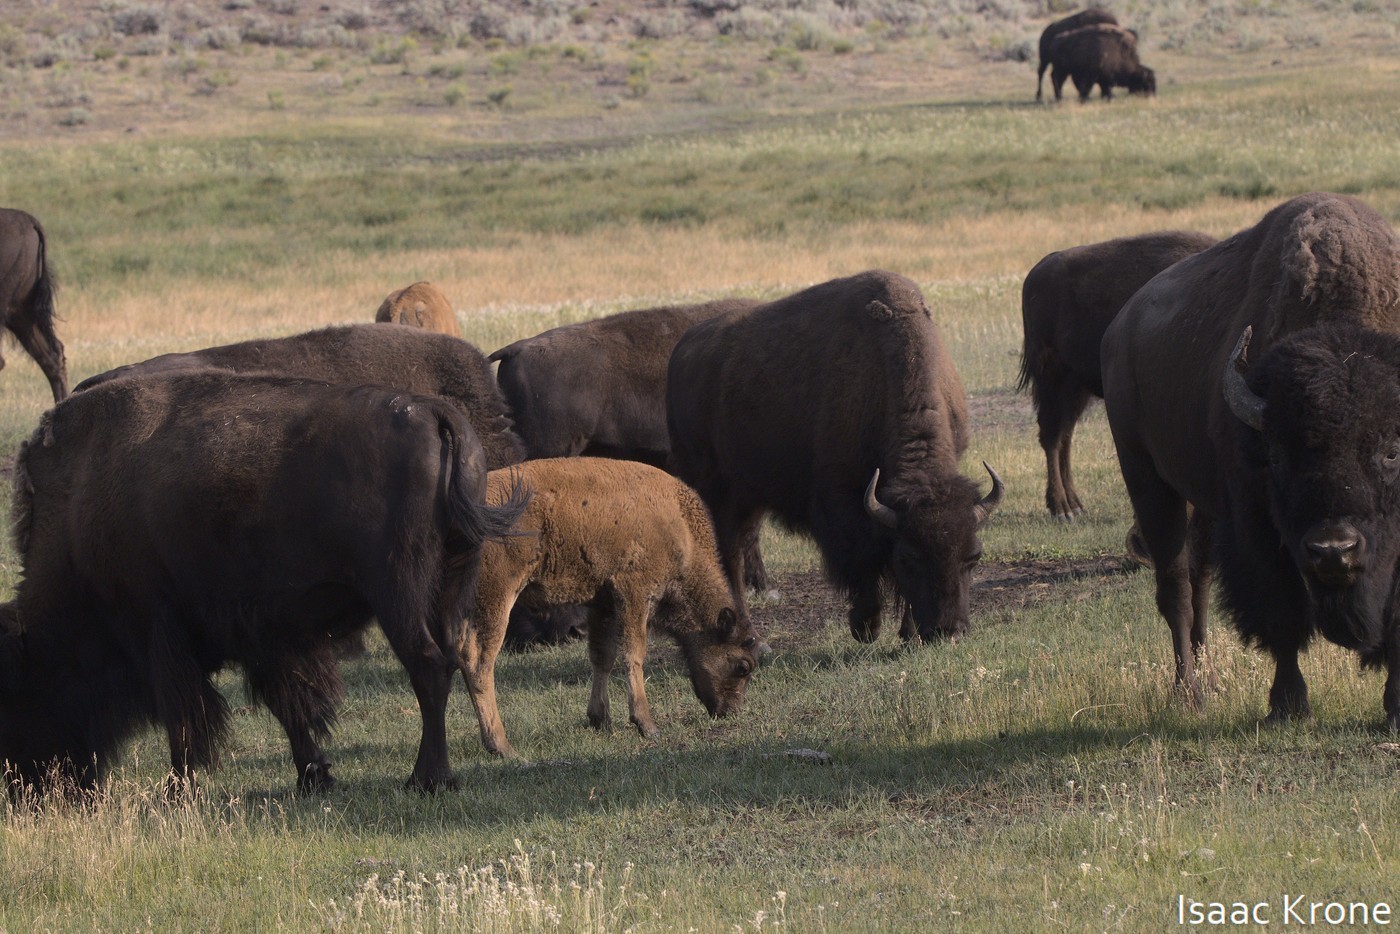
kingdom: Animalia
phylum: Chordata
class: Mammalia
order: Artiodactyla
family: Bovidae
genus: Bison
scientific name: Bison bison
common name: American bison
